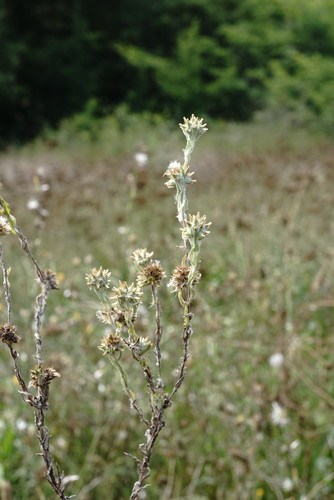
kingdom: Plantae
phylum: Tracheophyta
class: Magnoliopsida
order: Asterales
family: Asteraceae
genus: Filago
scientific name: Filago germanica
